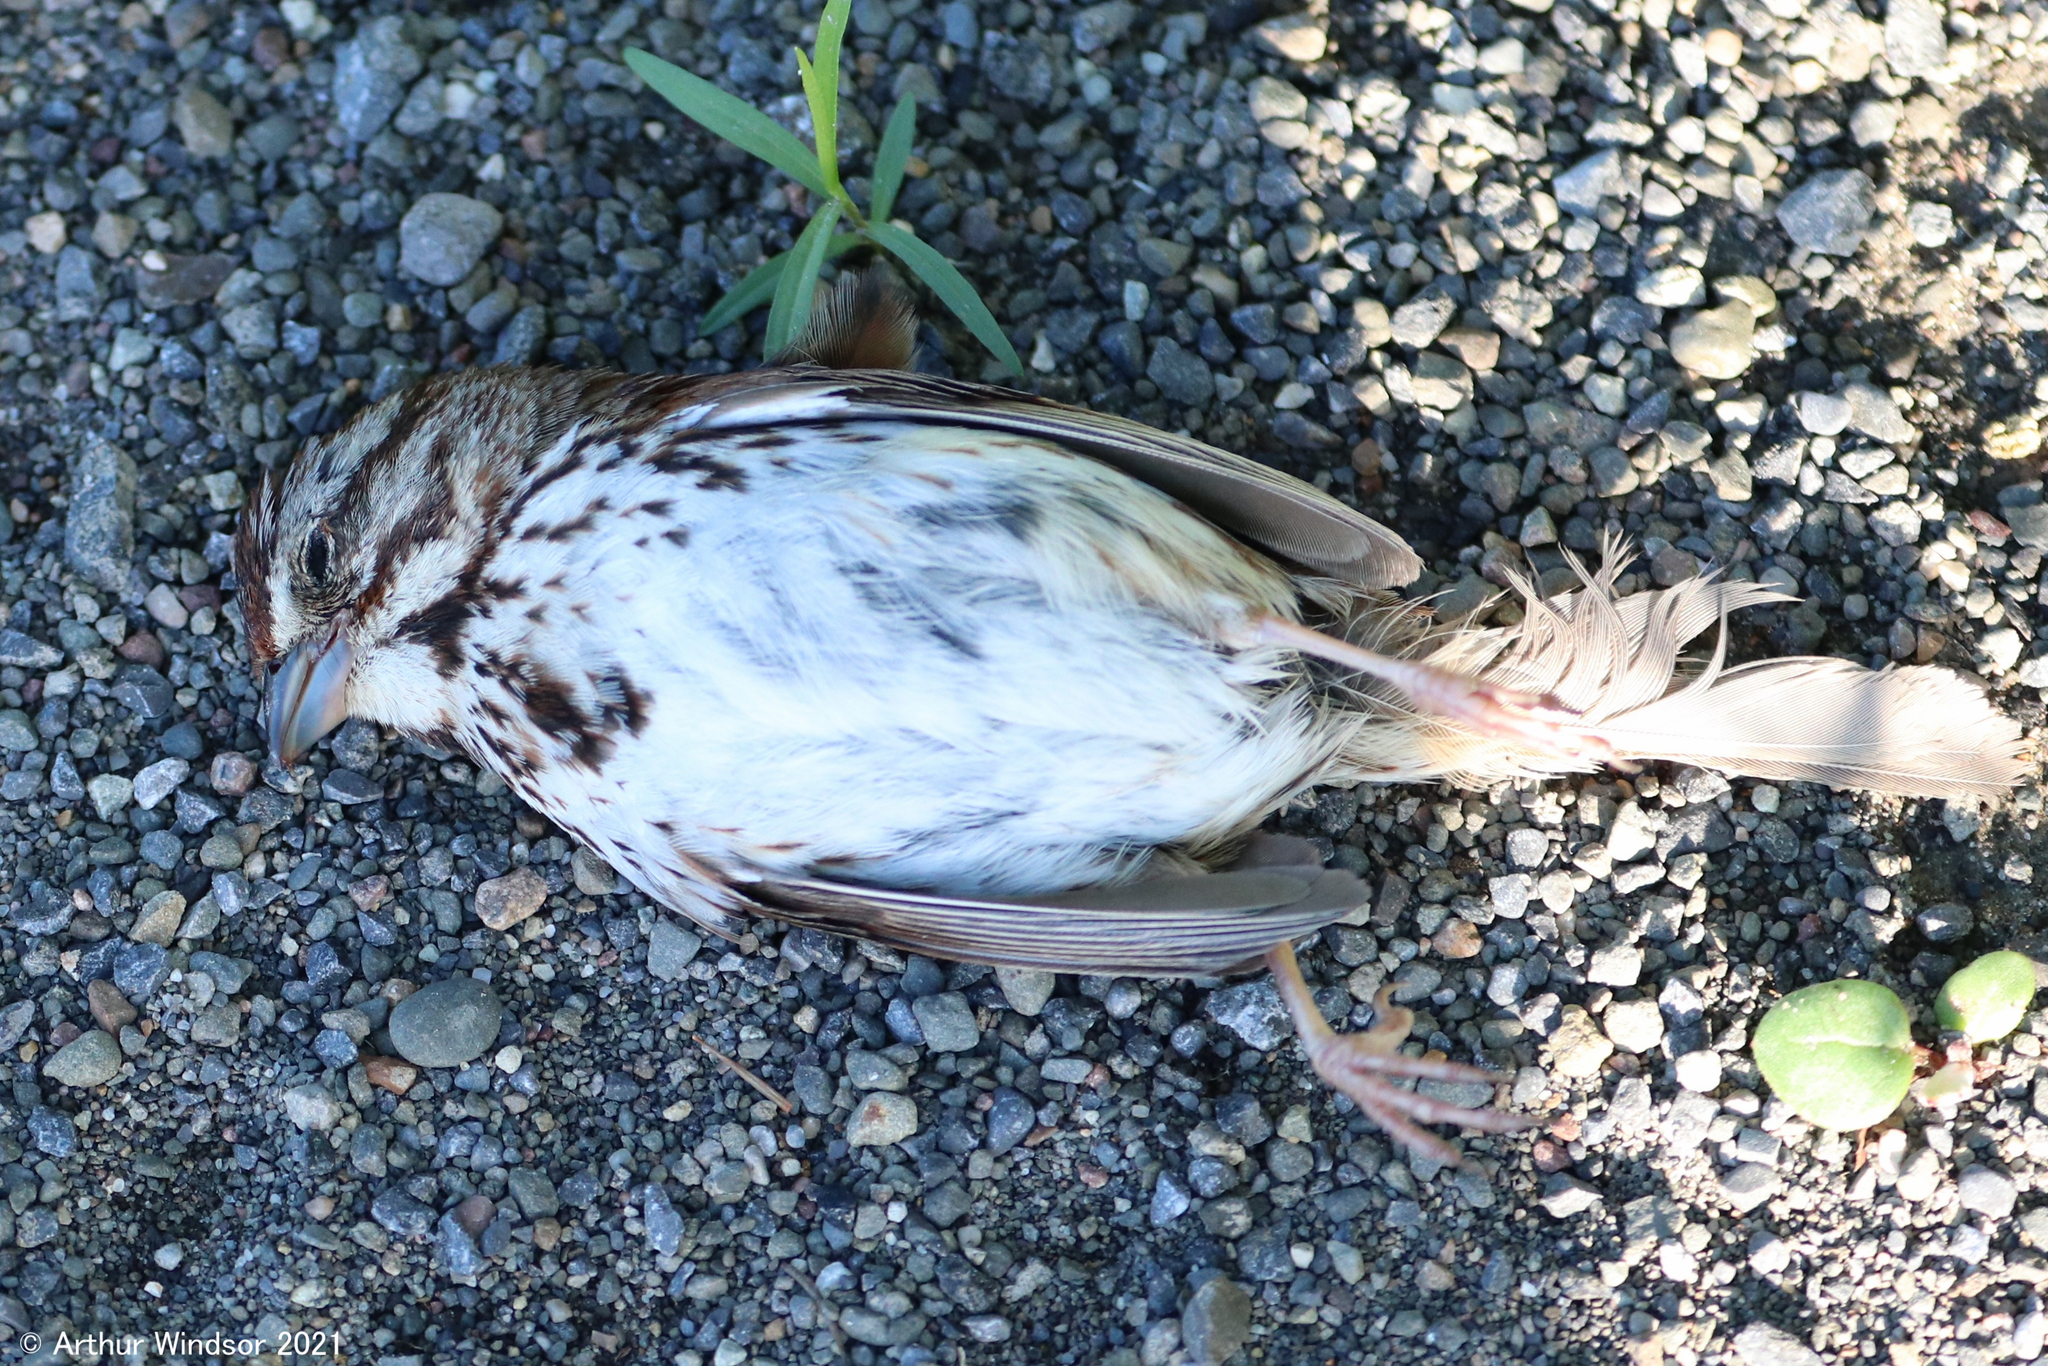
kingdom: Animalia
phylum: Chordata
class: Aves
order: Passeriformes
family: Passerellidae
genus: Melospiza
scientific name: Melospiza melodia
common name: Song sparrow
